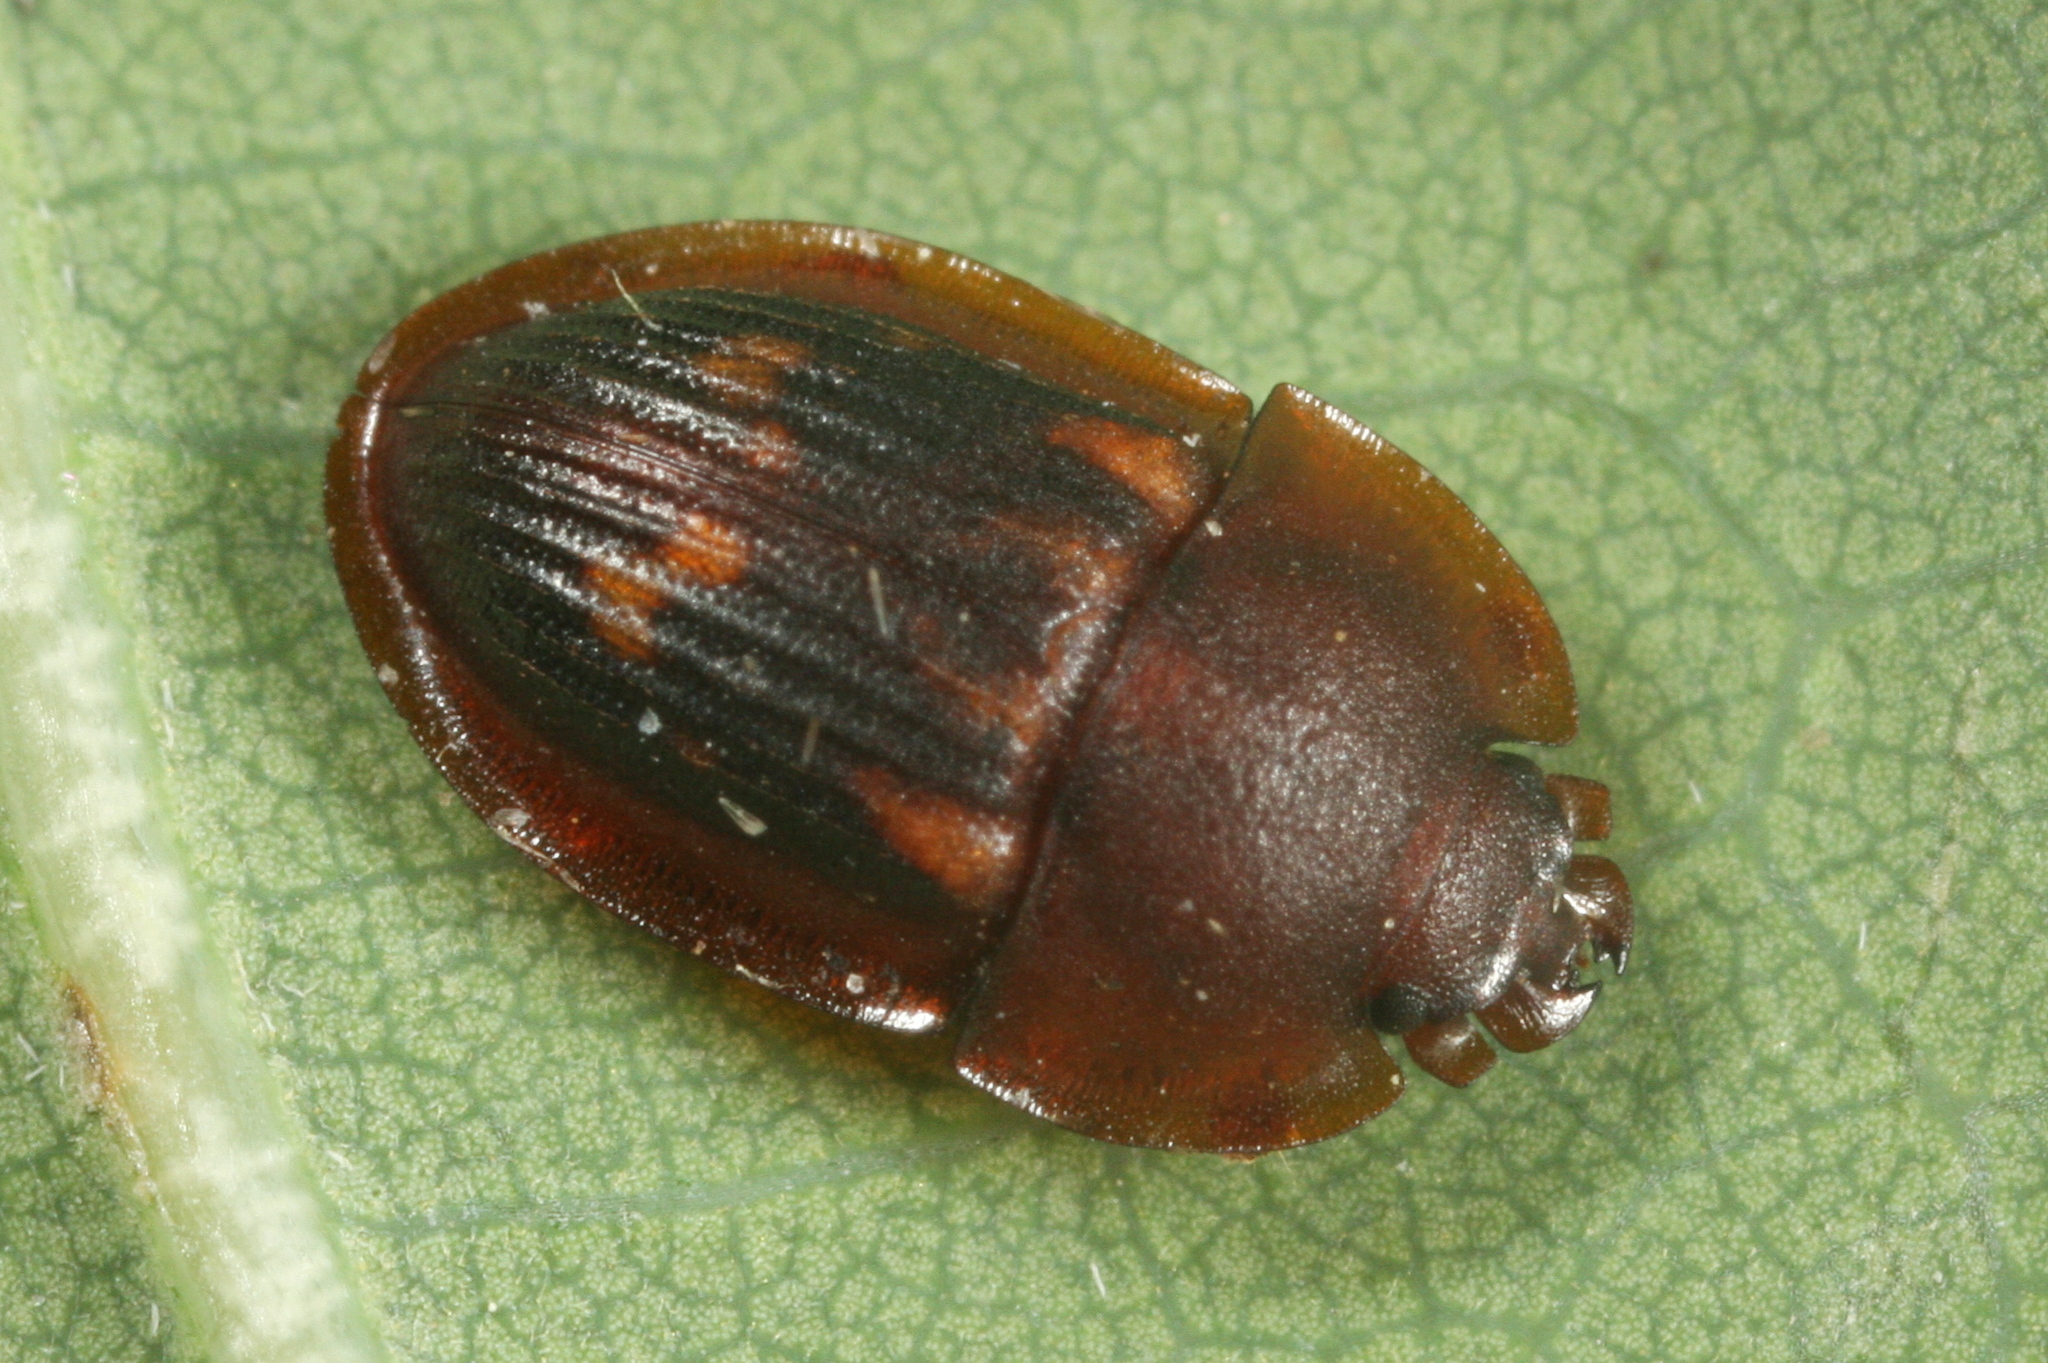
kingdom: Animalia
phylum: Arthropoda
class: Insecta
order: Coleoptera
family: Nitidulidae
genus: Amphotis
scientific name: Amphotis marginata
